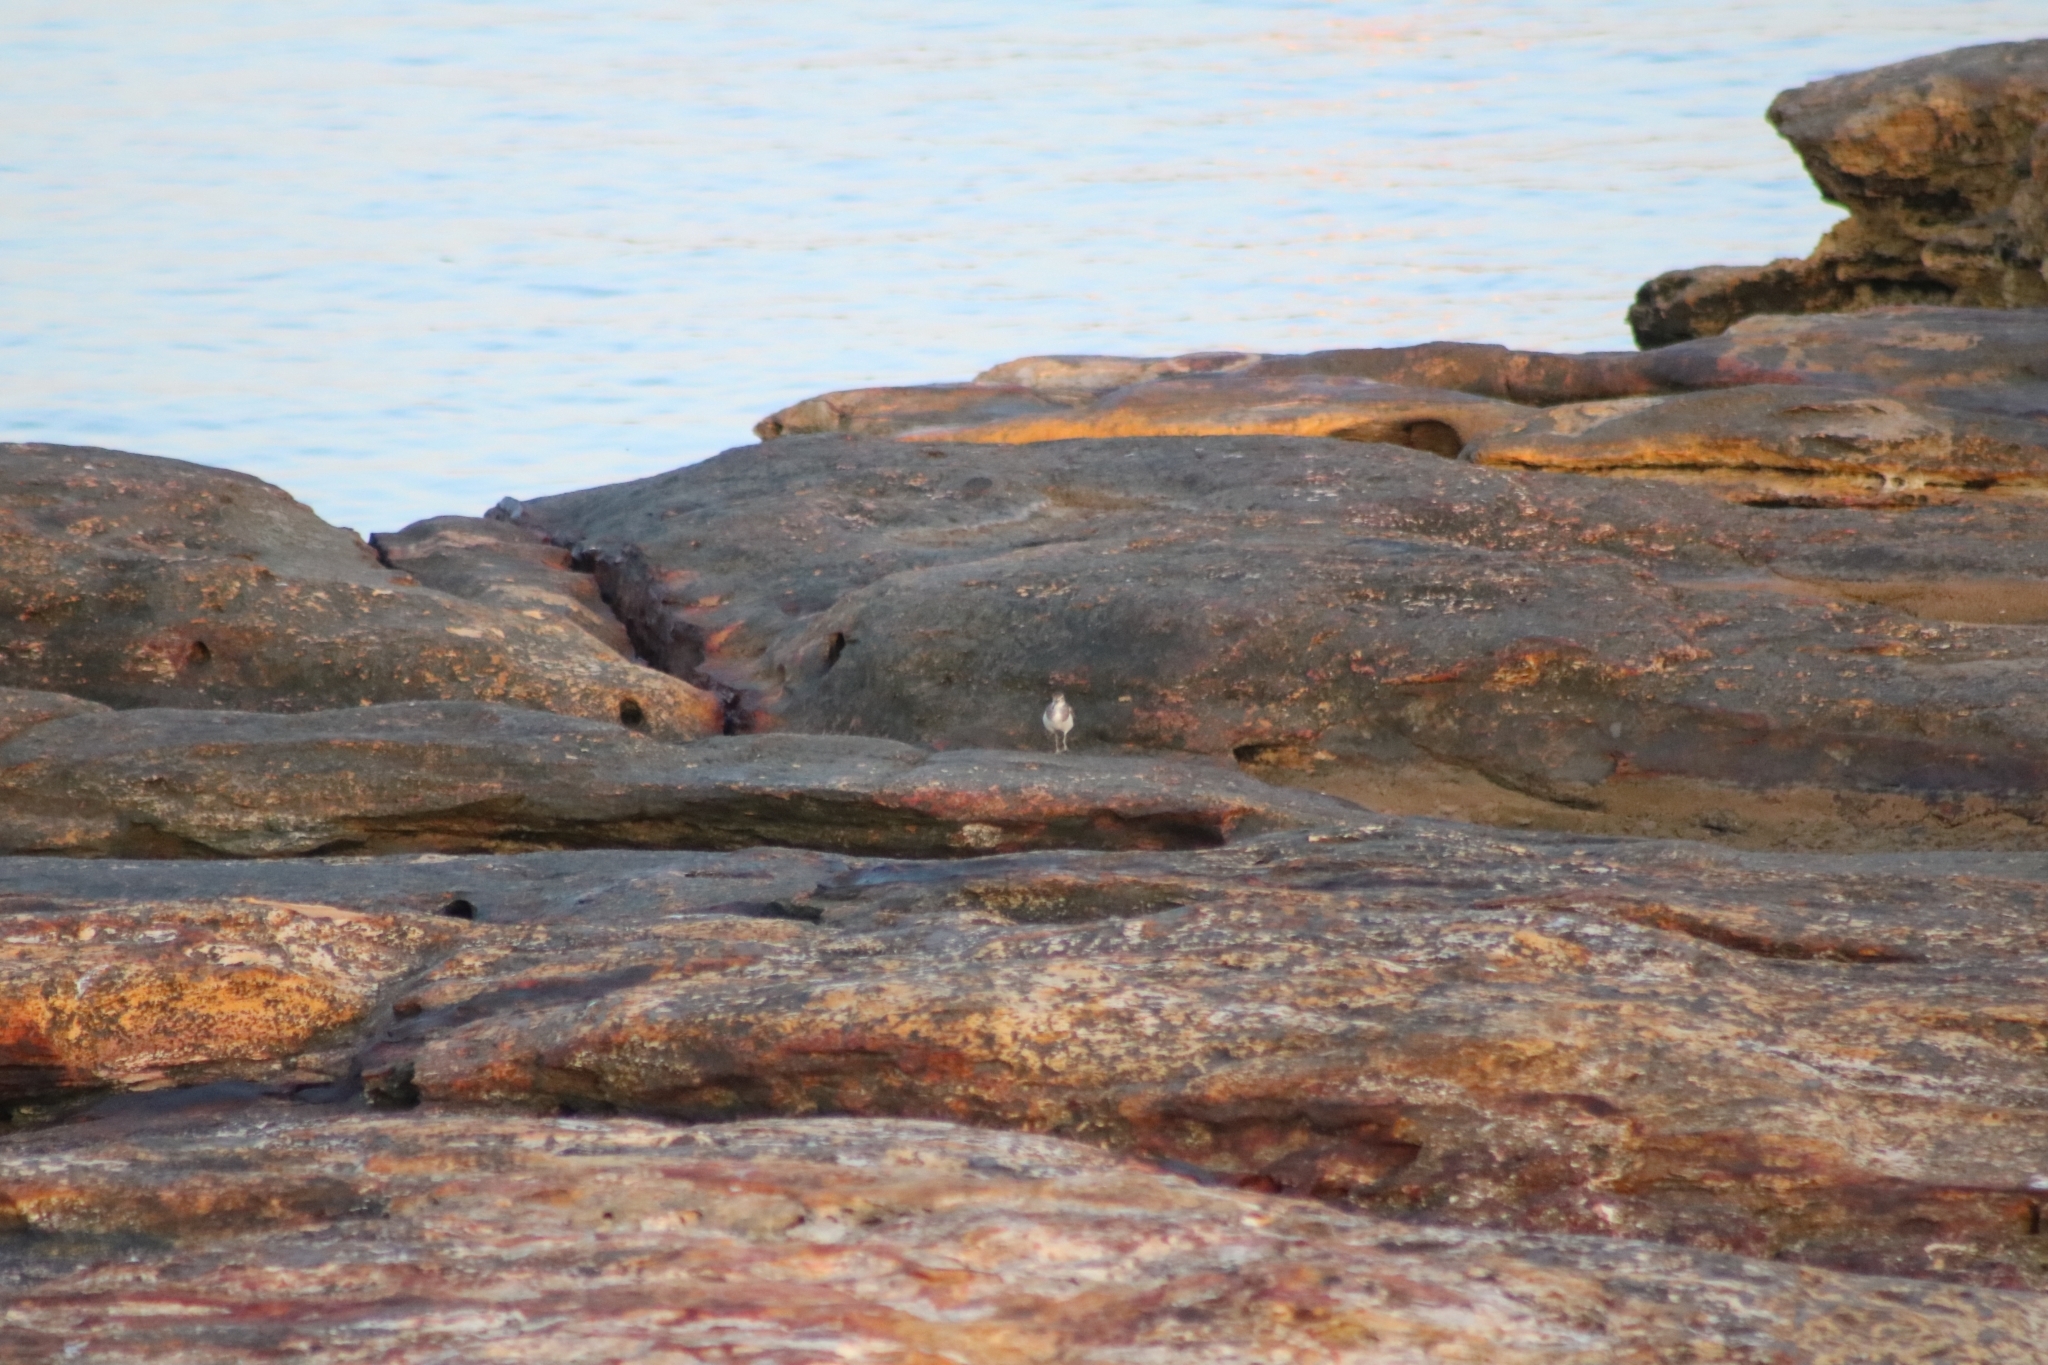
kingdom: Animalia
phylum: Chordata
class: Aves
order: Charadriiformes
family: Scolopacidae
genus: Actitis
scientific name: Actitis hypoleucos
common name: Common sandpiper
